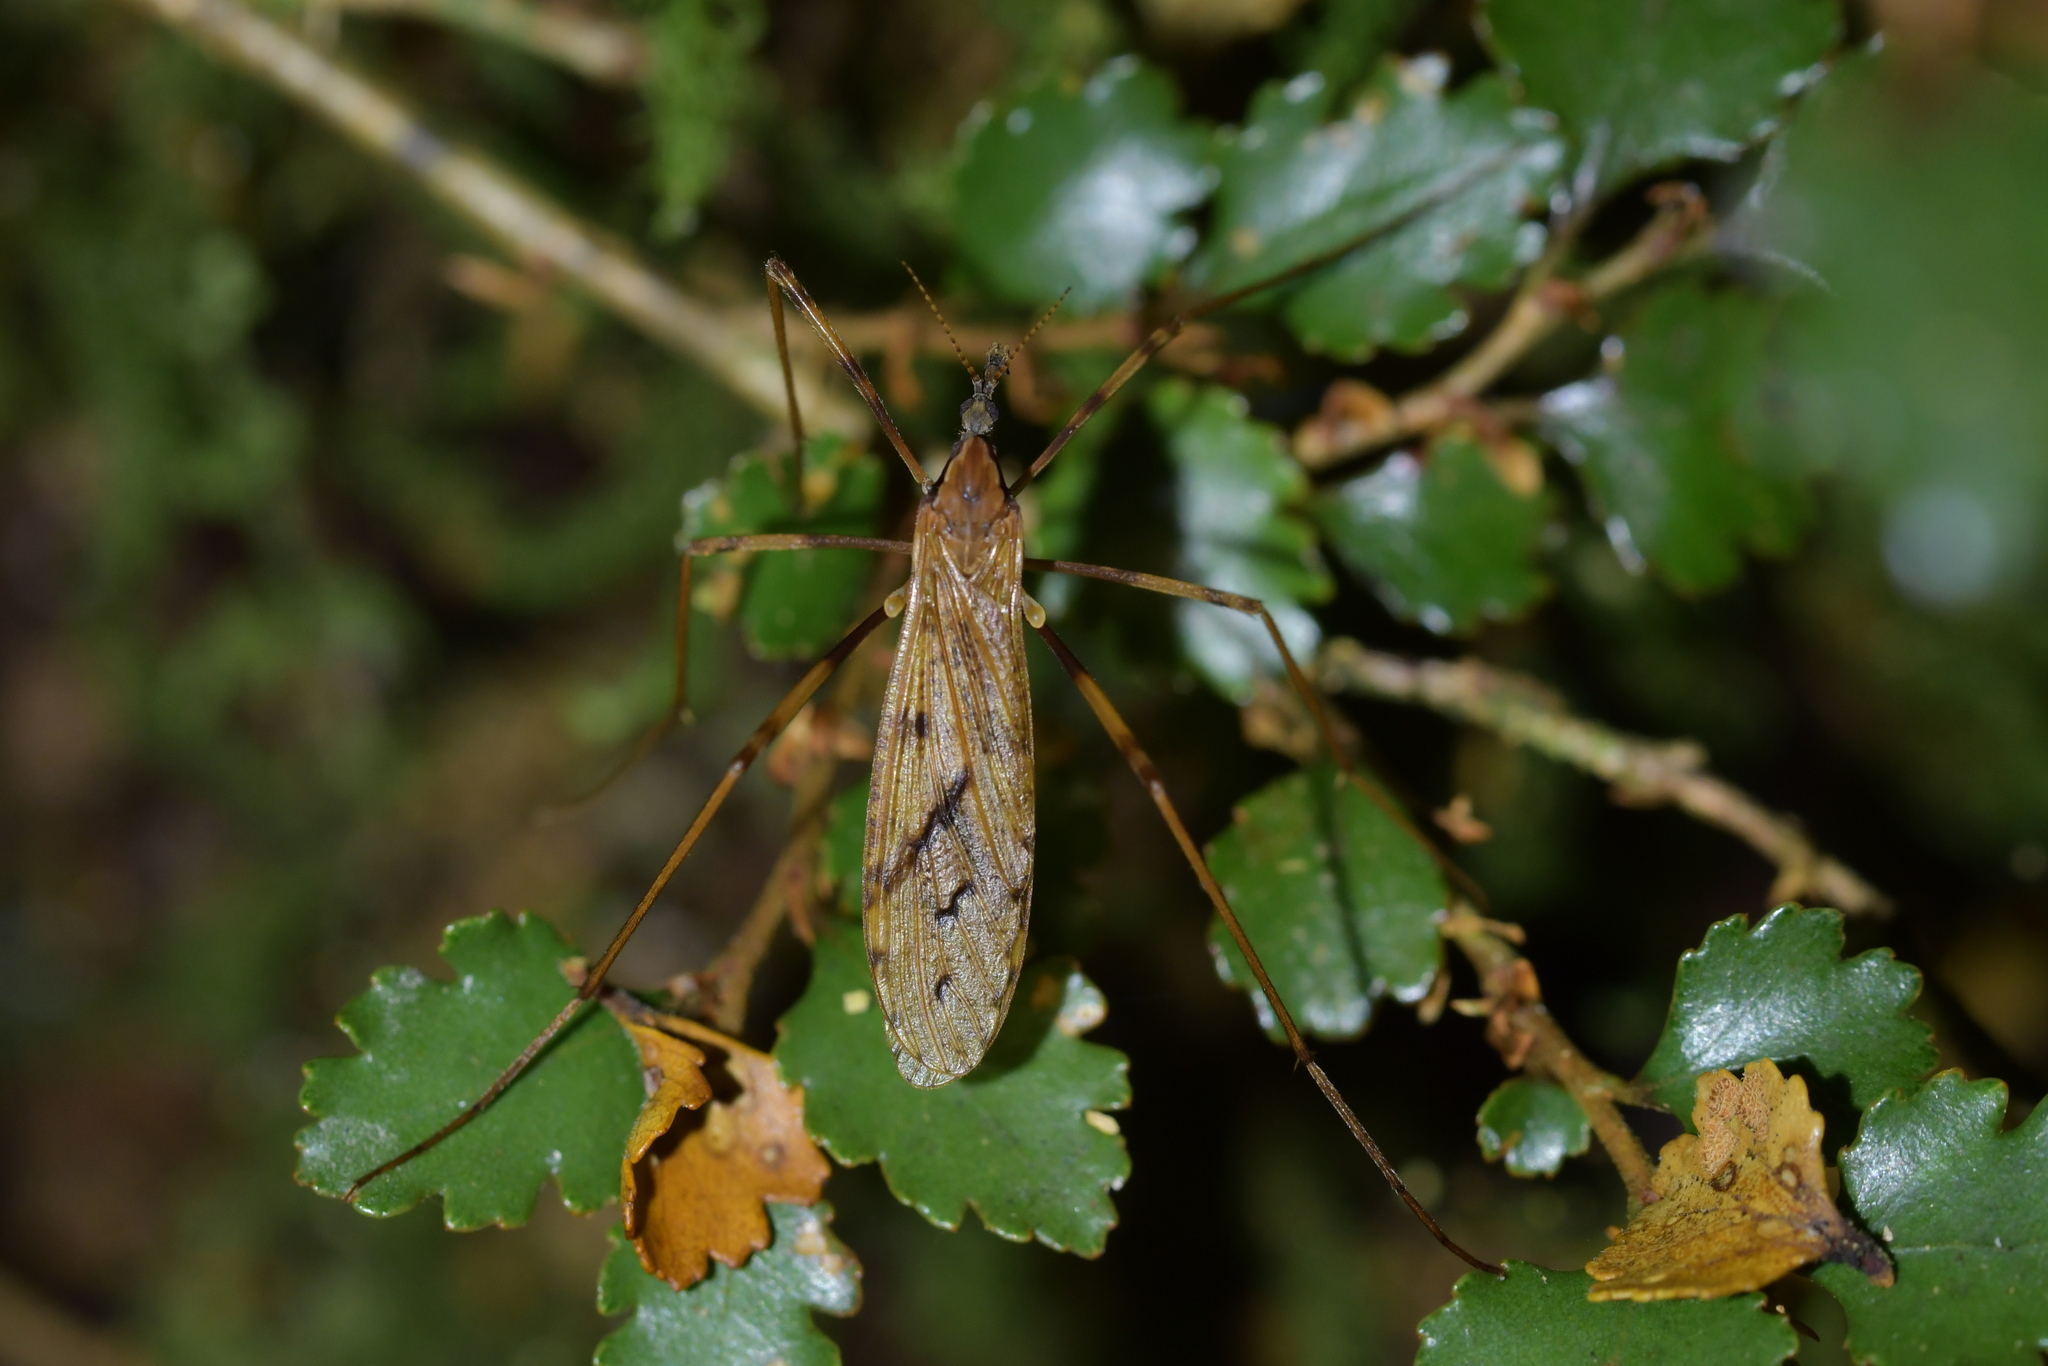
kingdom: Animalia
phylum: Arthropoda
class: Insecta
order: Diptera
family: Limoniidae
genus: Rhamphophila
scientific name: Rhamphophila sinistra
